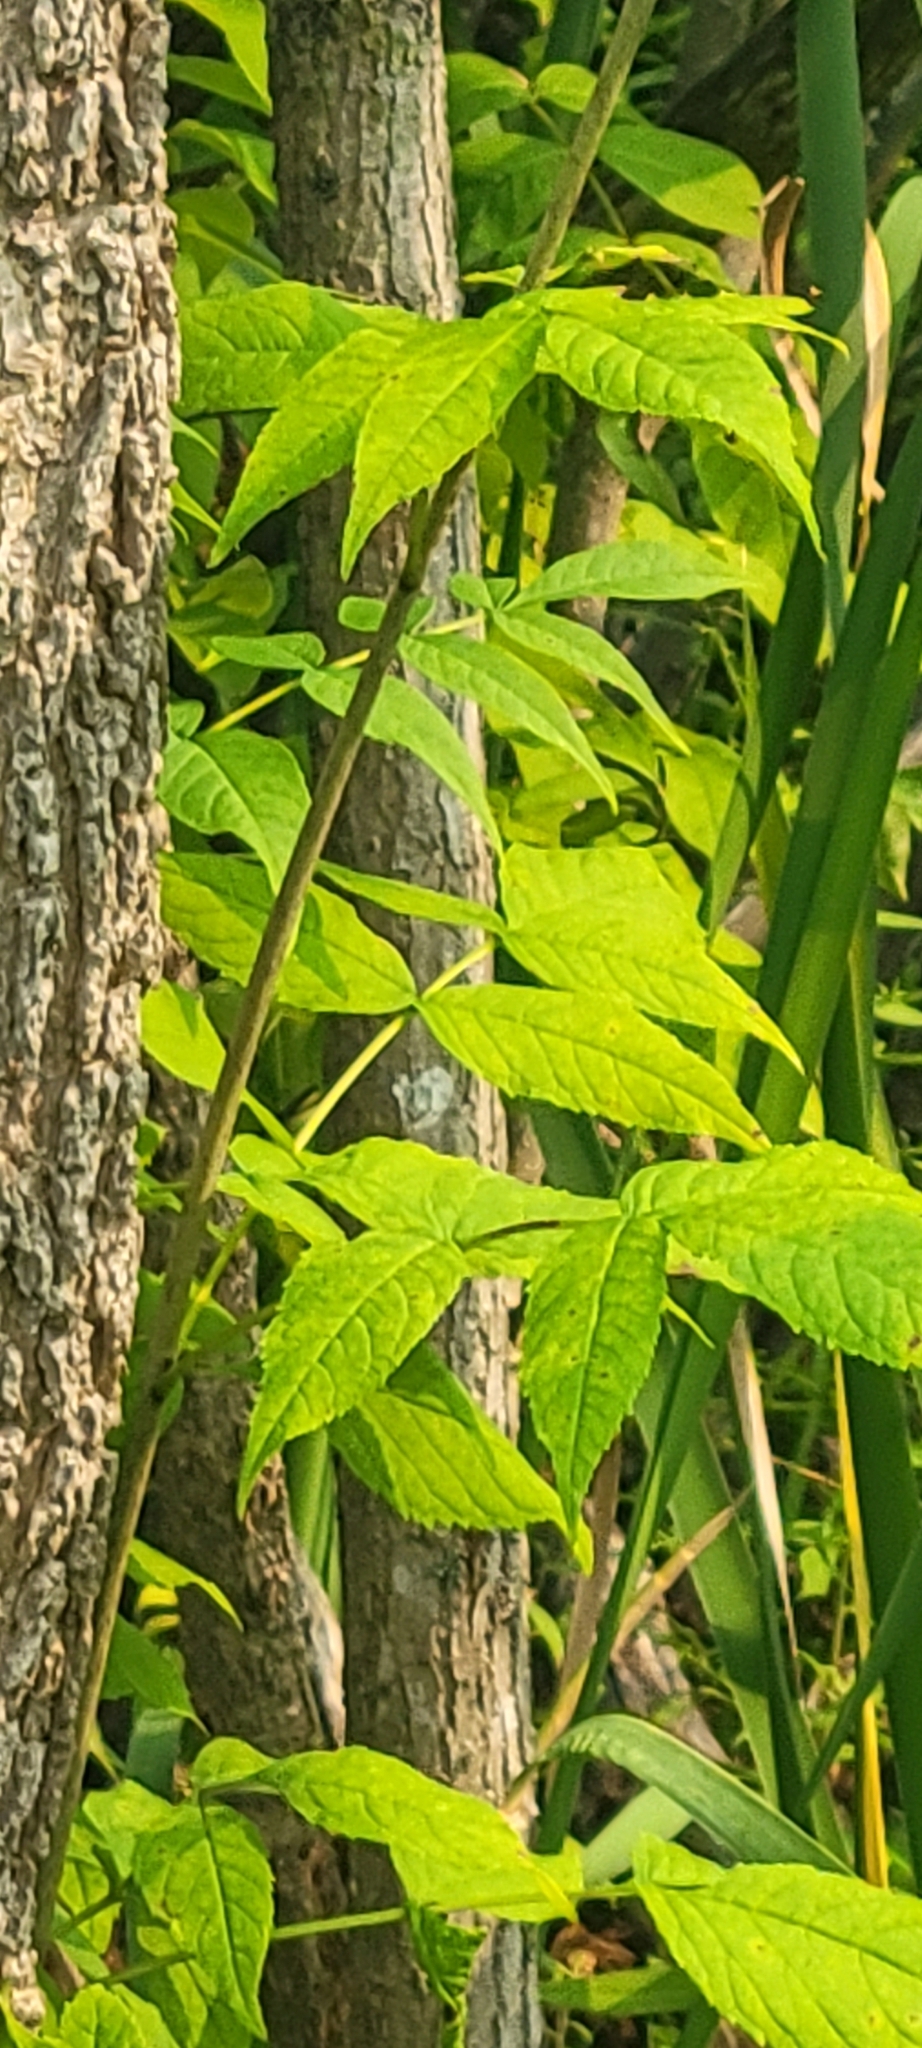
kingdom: Plantae
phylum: Tracheophyta
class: Magnoliopsida
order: Lamiales
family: Oleaceae
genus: Fraxinus
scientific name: Fraxinus nigra
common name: Black ash
